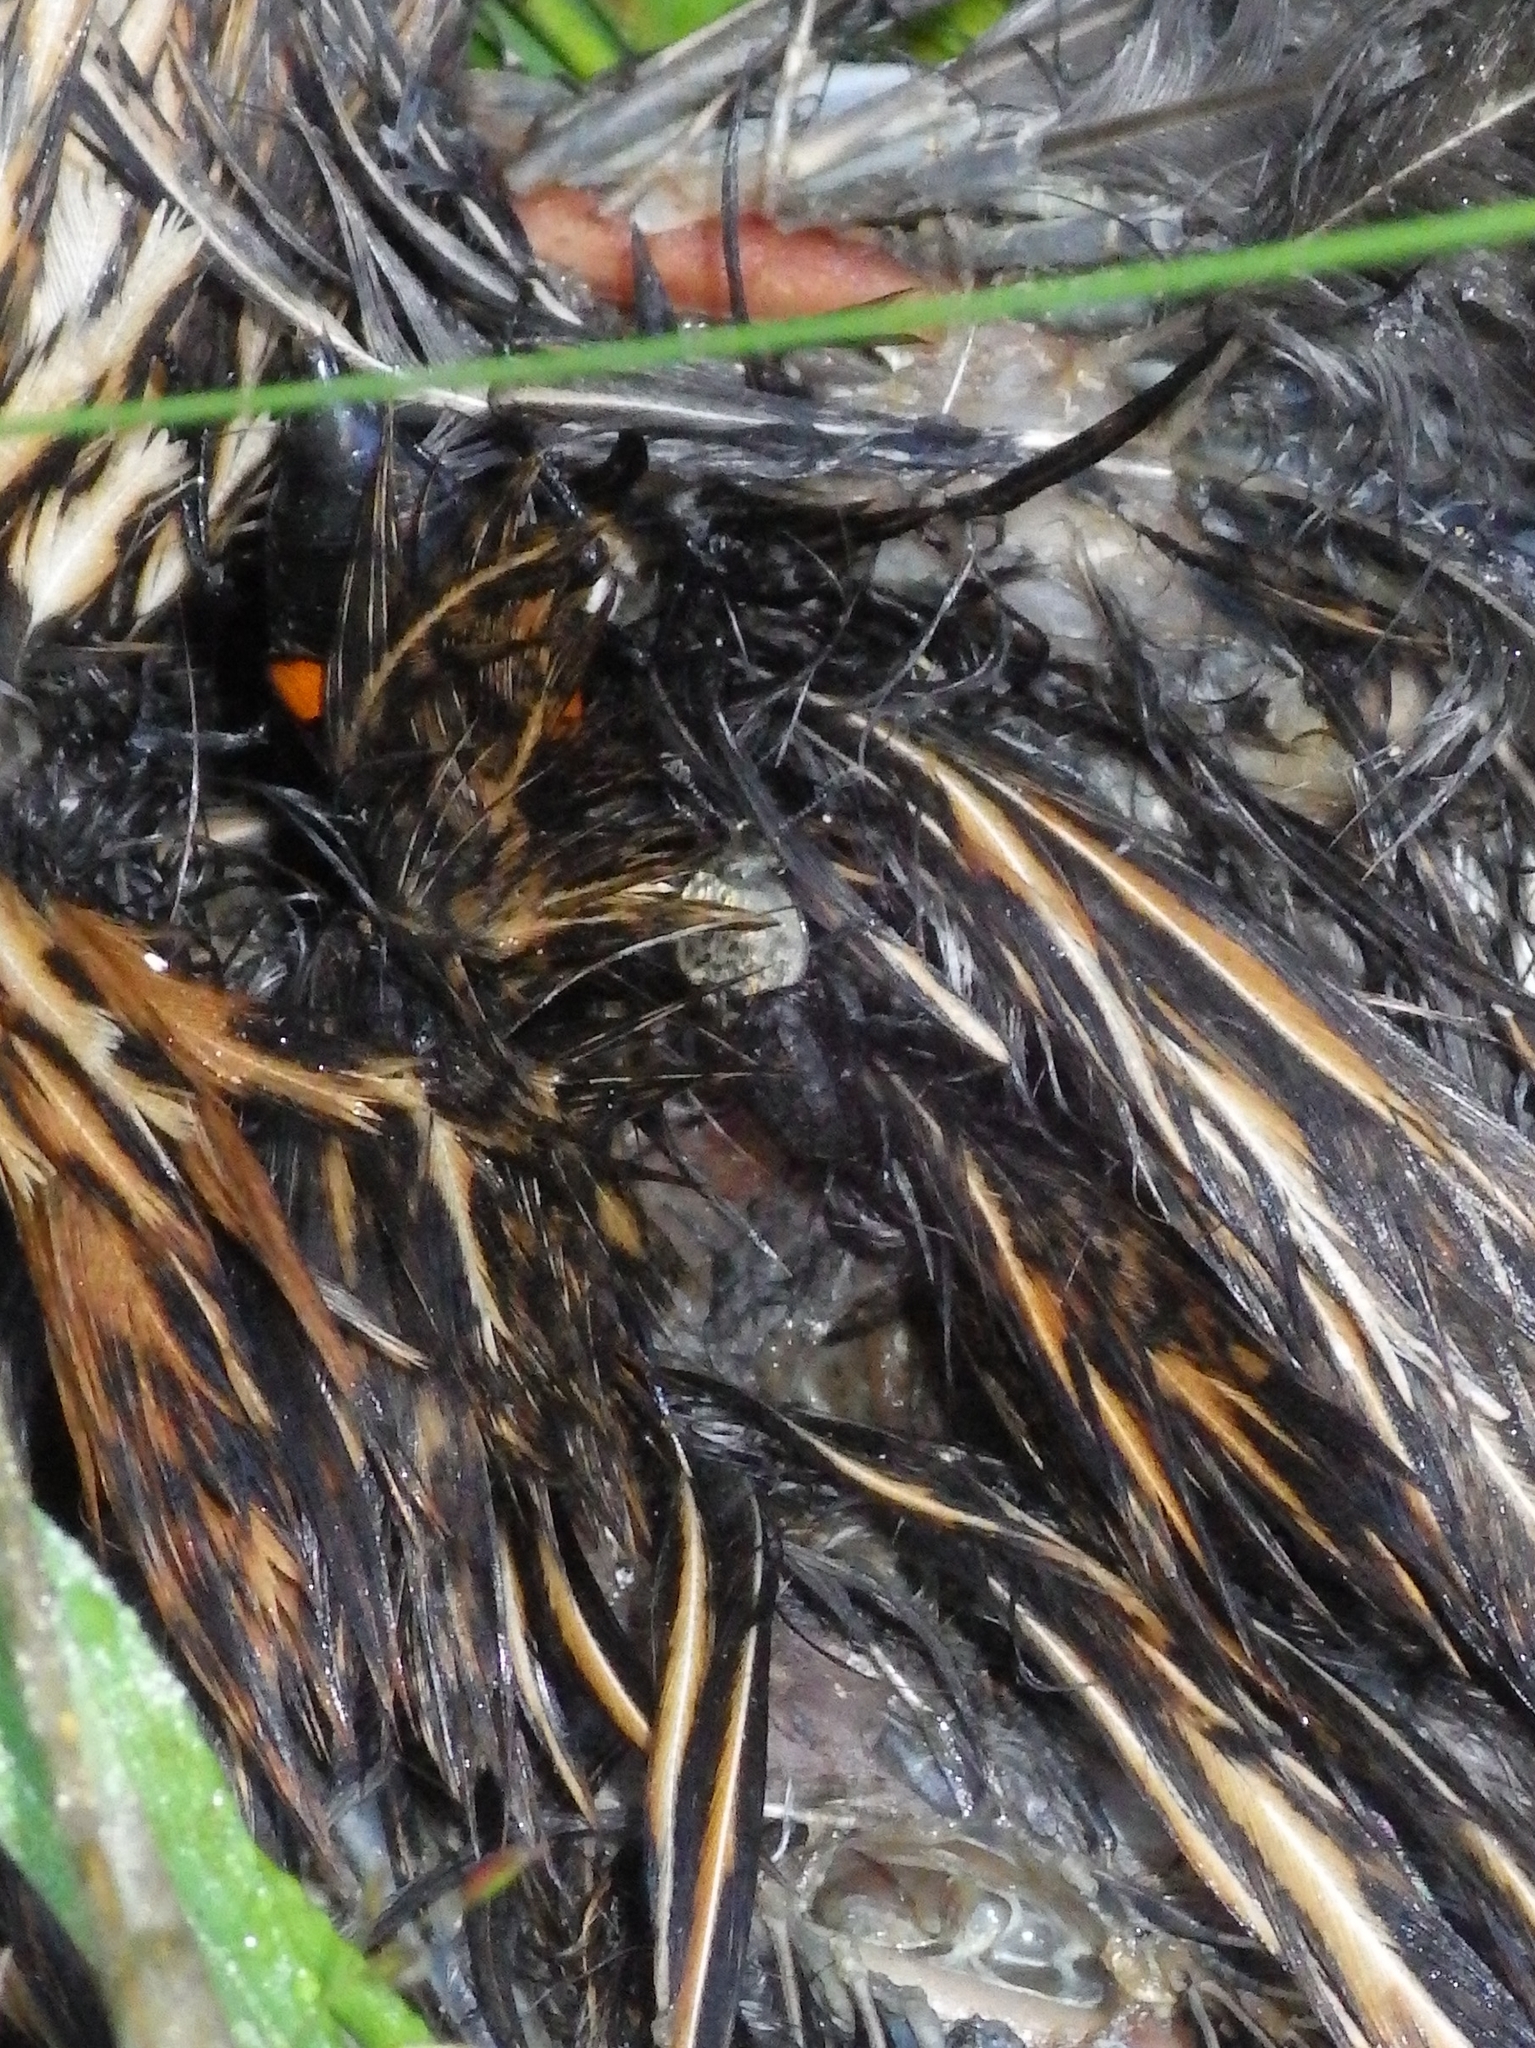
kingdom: Animalia
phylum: Arthropoda
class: Insecta
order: Coleoptera
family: Staphylinidae
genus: Thanatophilus
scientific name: Thanatophilus lapponicus
